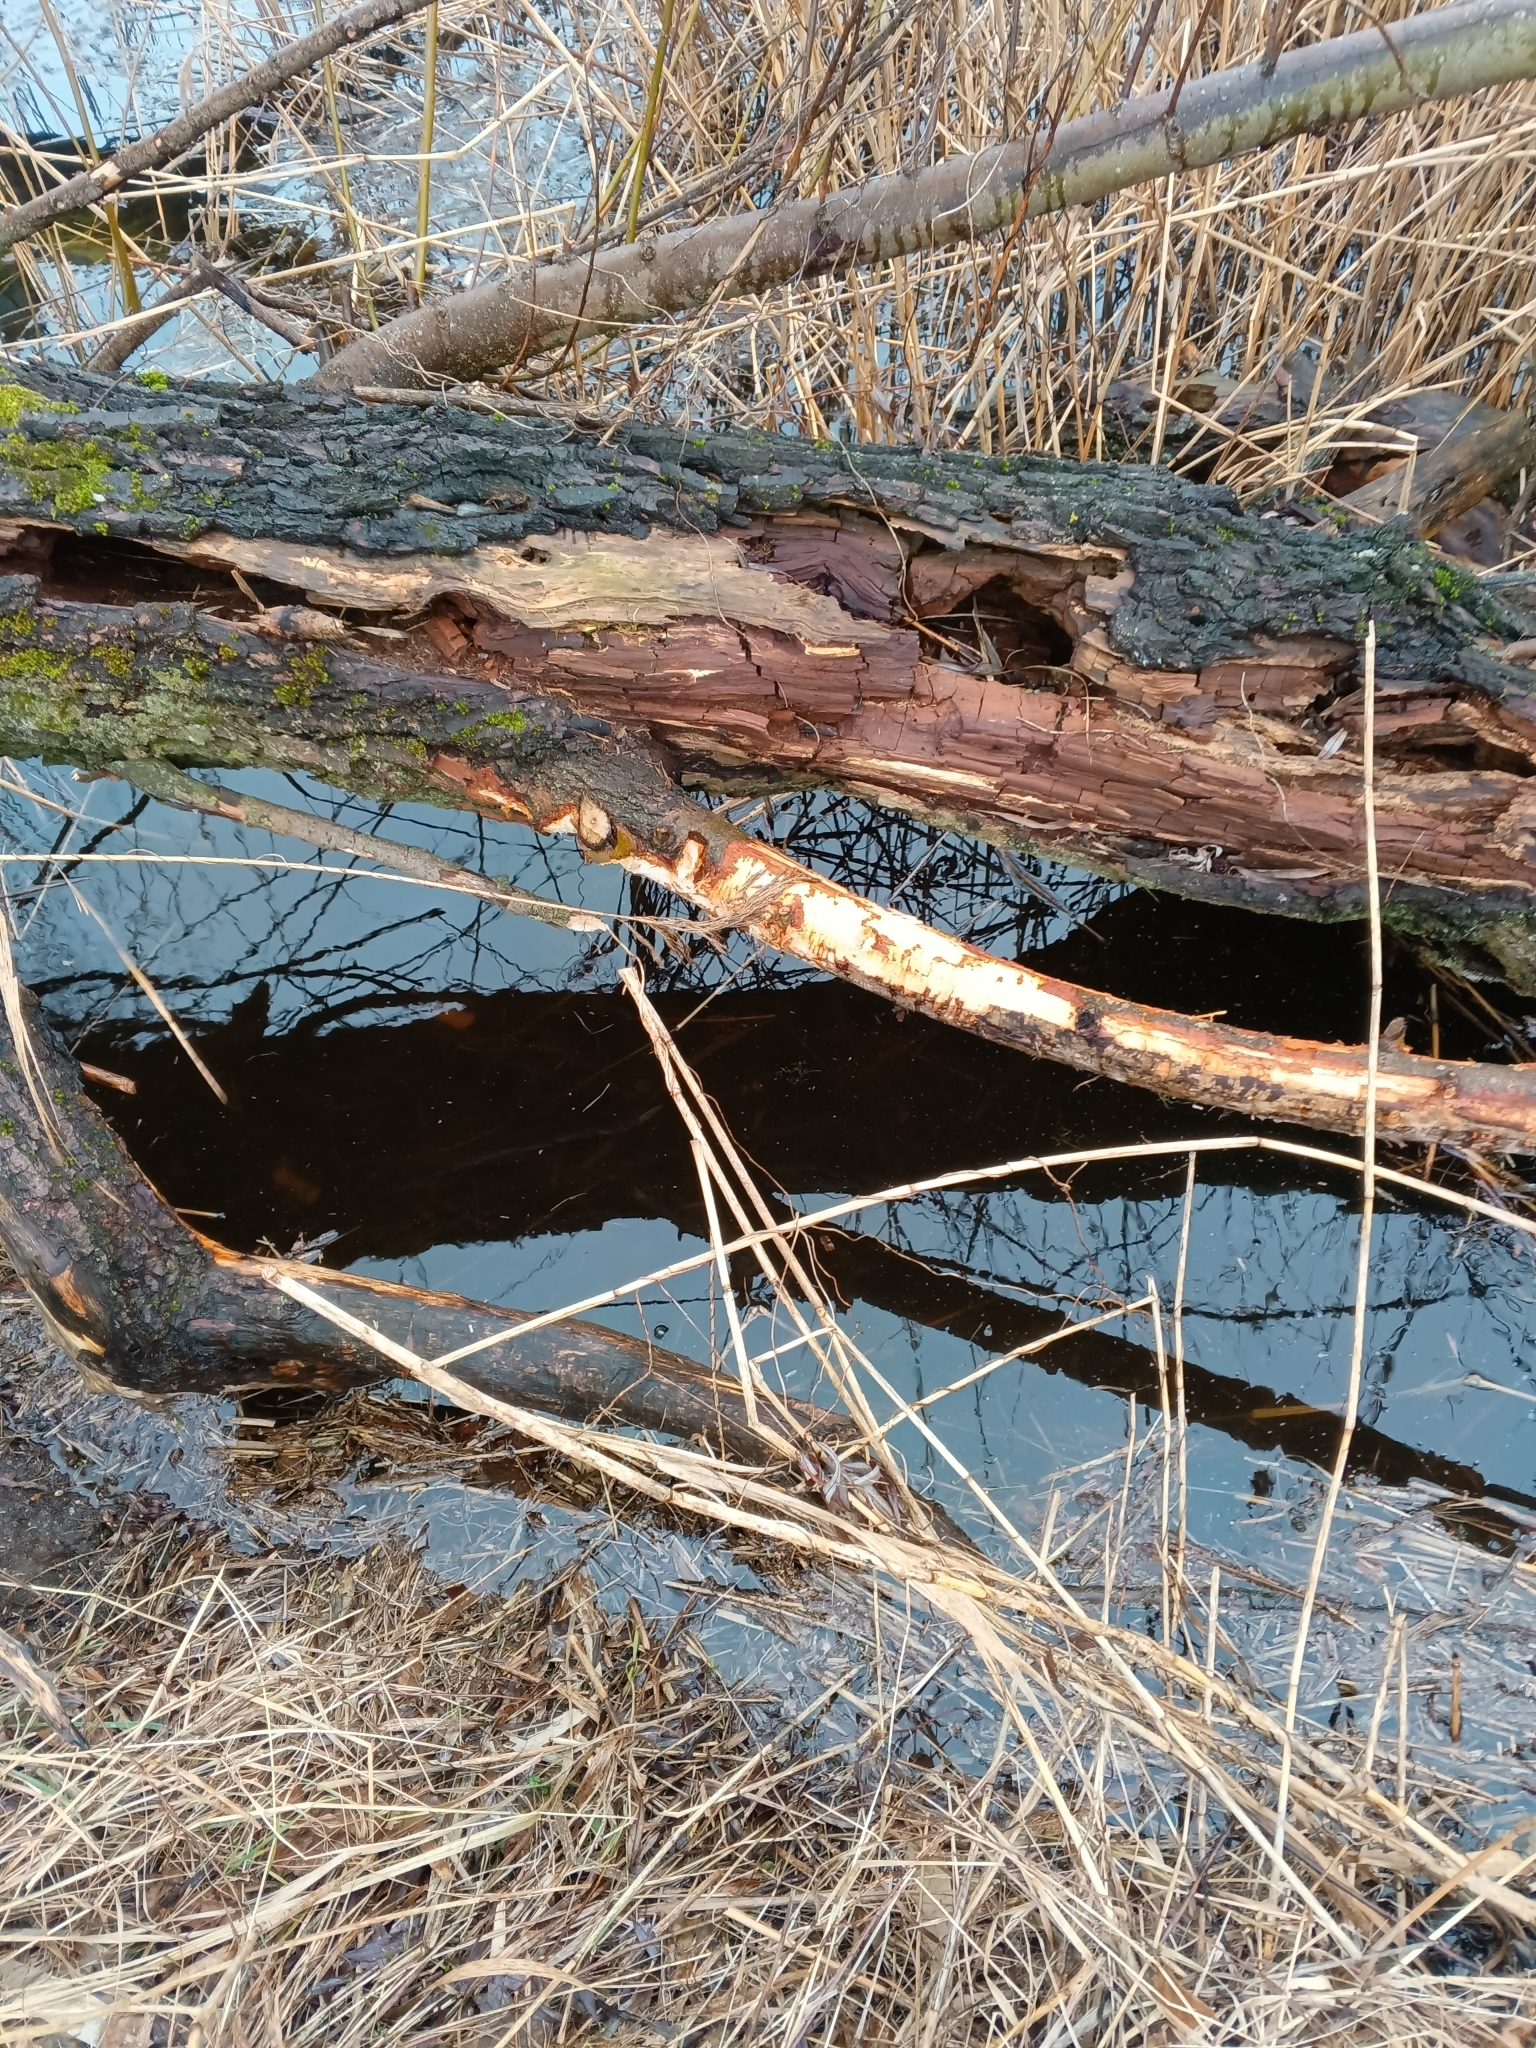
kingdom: Animalia
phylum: Chordata
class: Mammalia
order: Rodentia
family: Castoridae
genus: Castor
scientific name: Castor fiber
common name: Eurasian beaver
